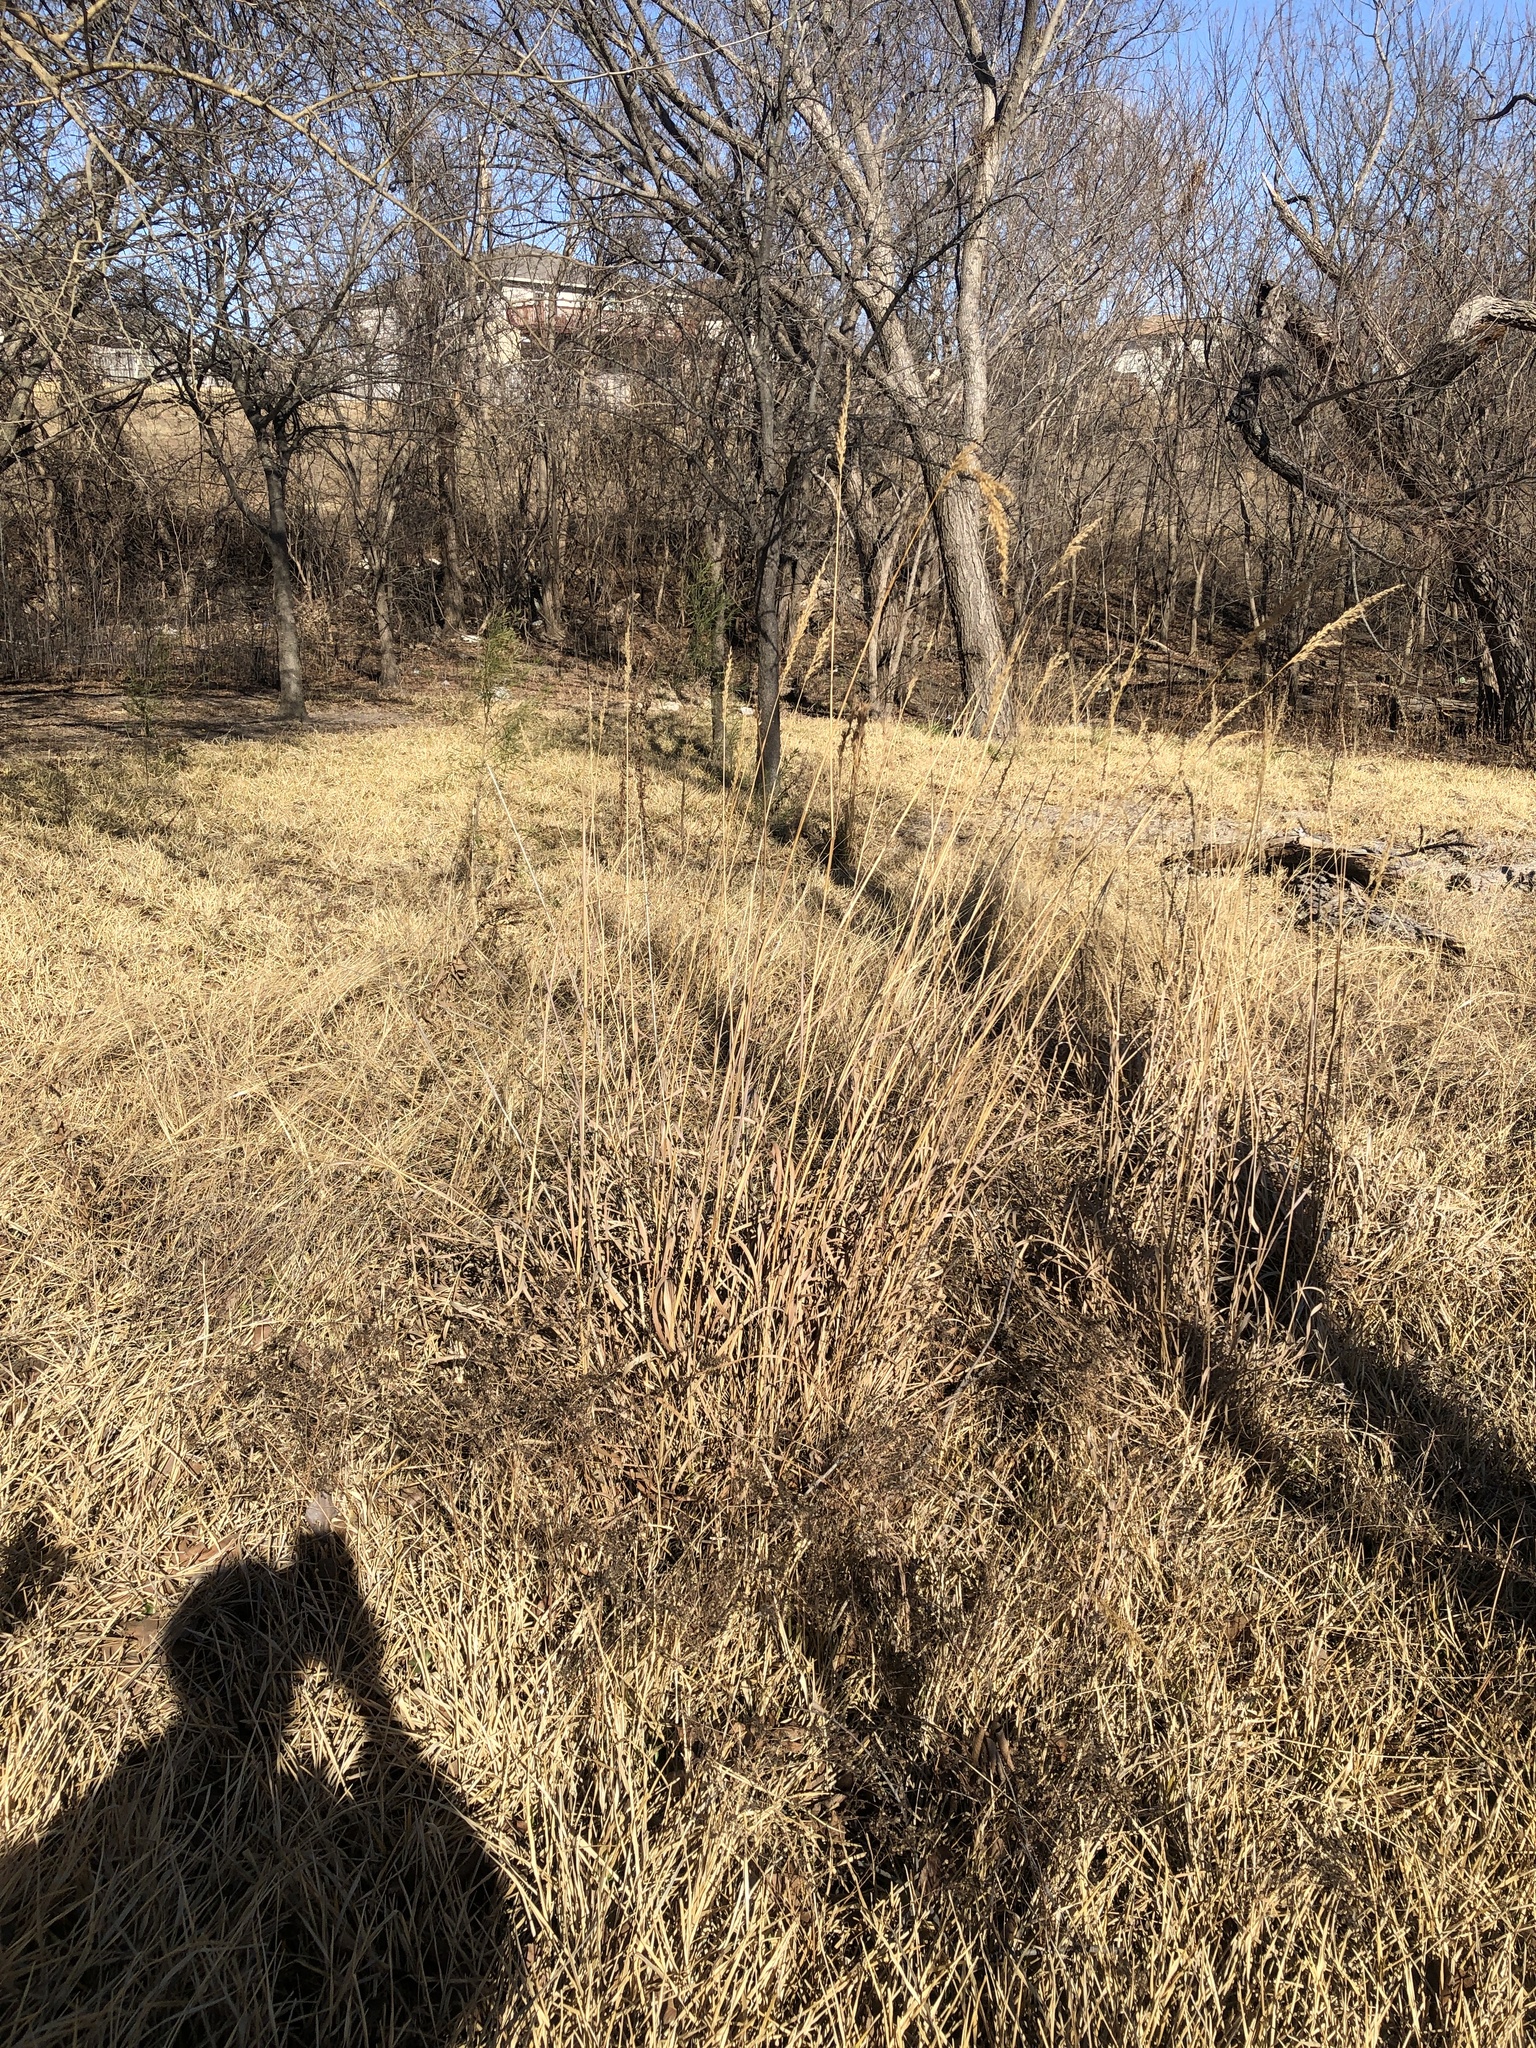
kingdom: Plantae
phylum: Tracheophyta
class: Liliopsida
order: Poales
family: Poaceae
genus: Sorghastrum
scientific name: Sorghastrum nutans
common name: Indian grass
